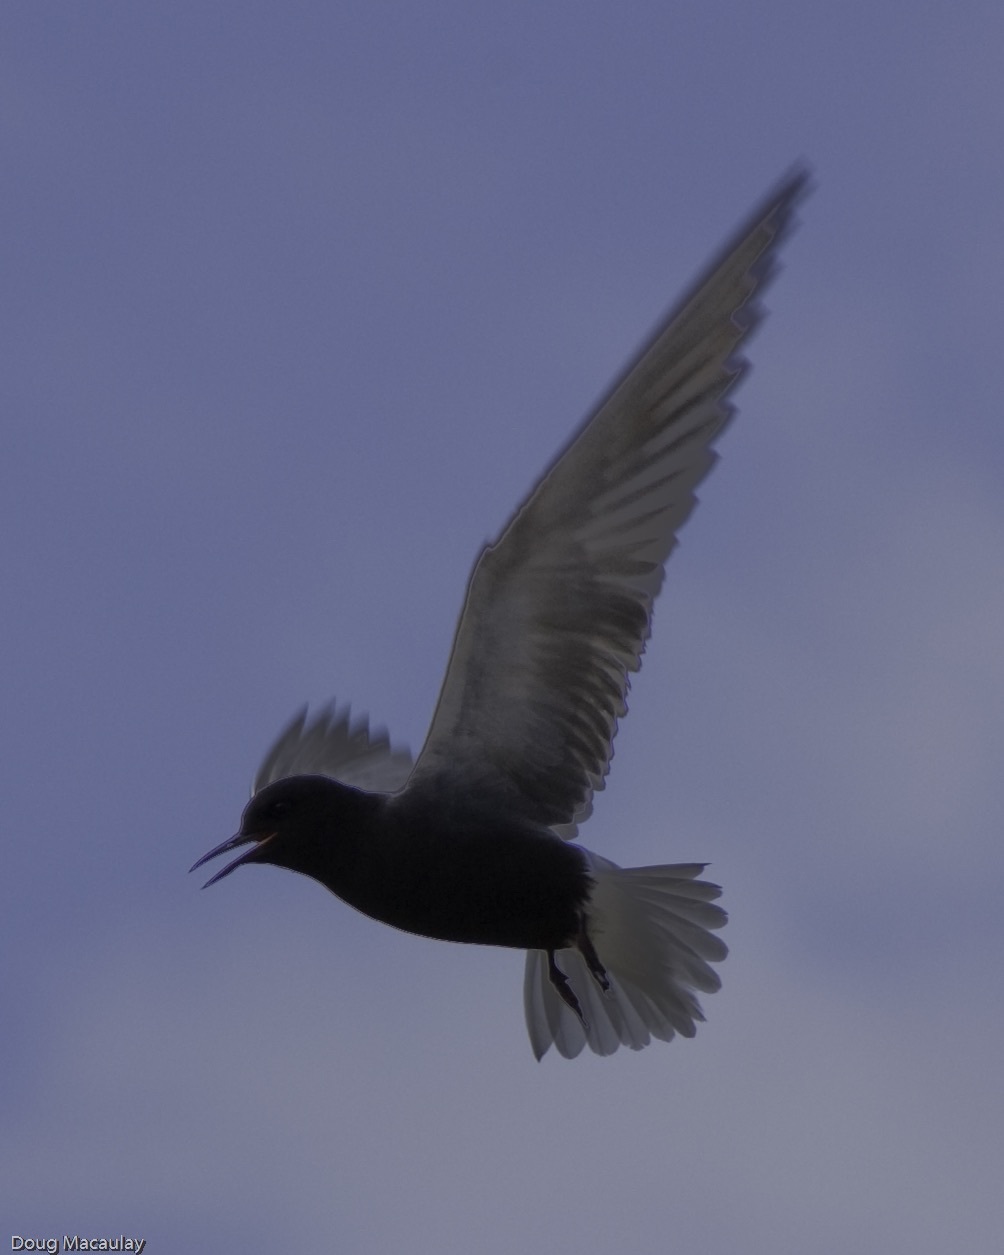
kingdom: Animalia
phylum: Chordata
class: Aves
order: Charadriiformes
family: Laridae
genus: Chlidonias
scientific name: Chlidonias niger
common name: Black tern
